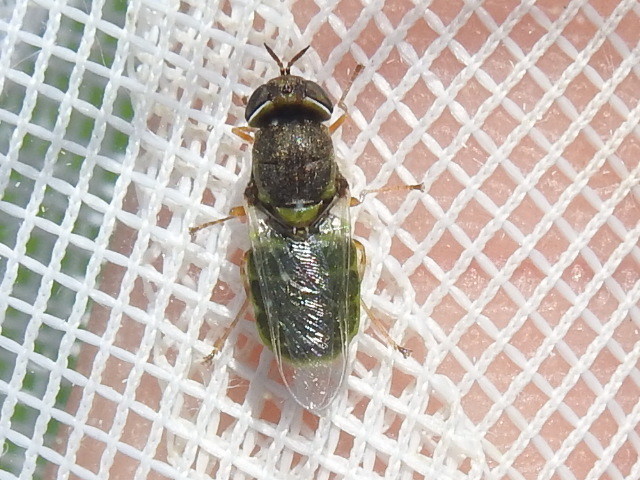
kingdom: Animalia
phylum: Arthropoda
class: Insecta
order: Diptera
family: Stratiomyidae
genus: Hedriodiscus
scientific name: Hedriodiscus vertebratus
